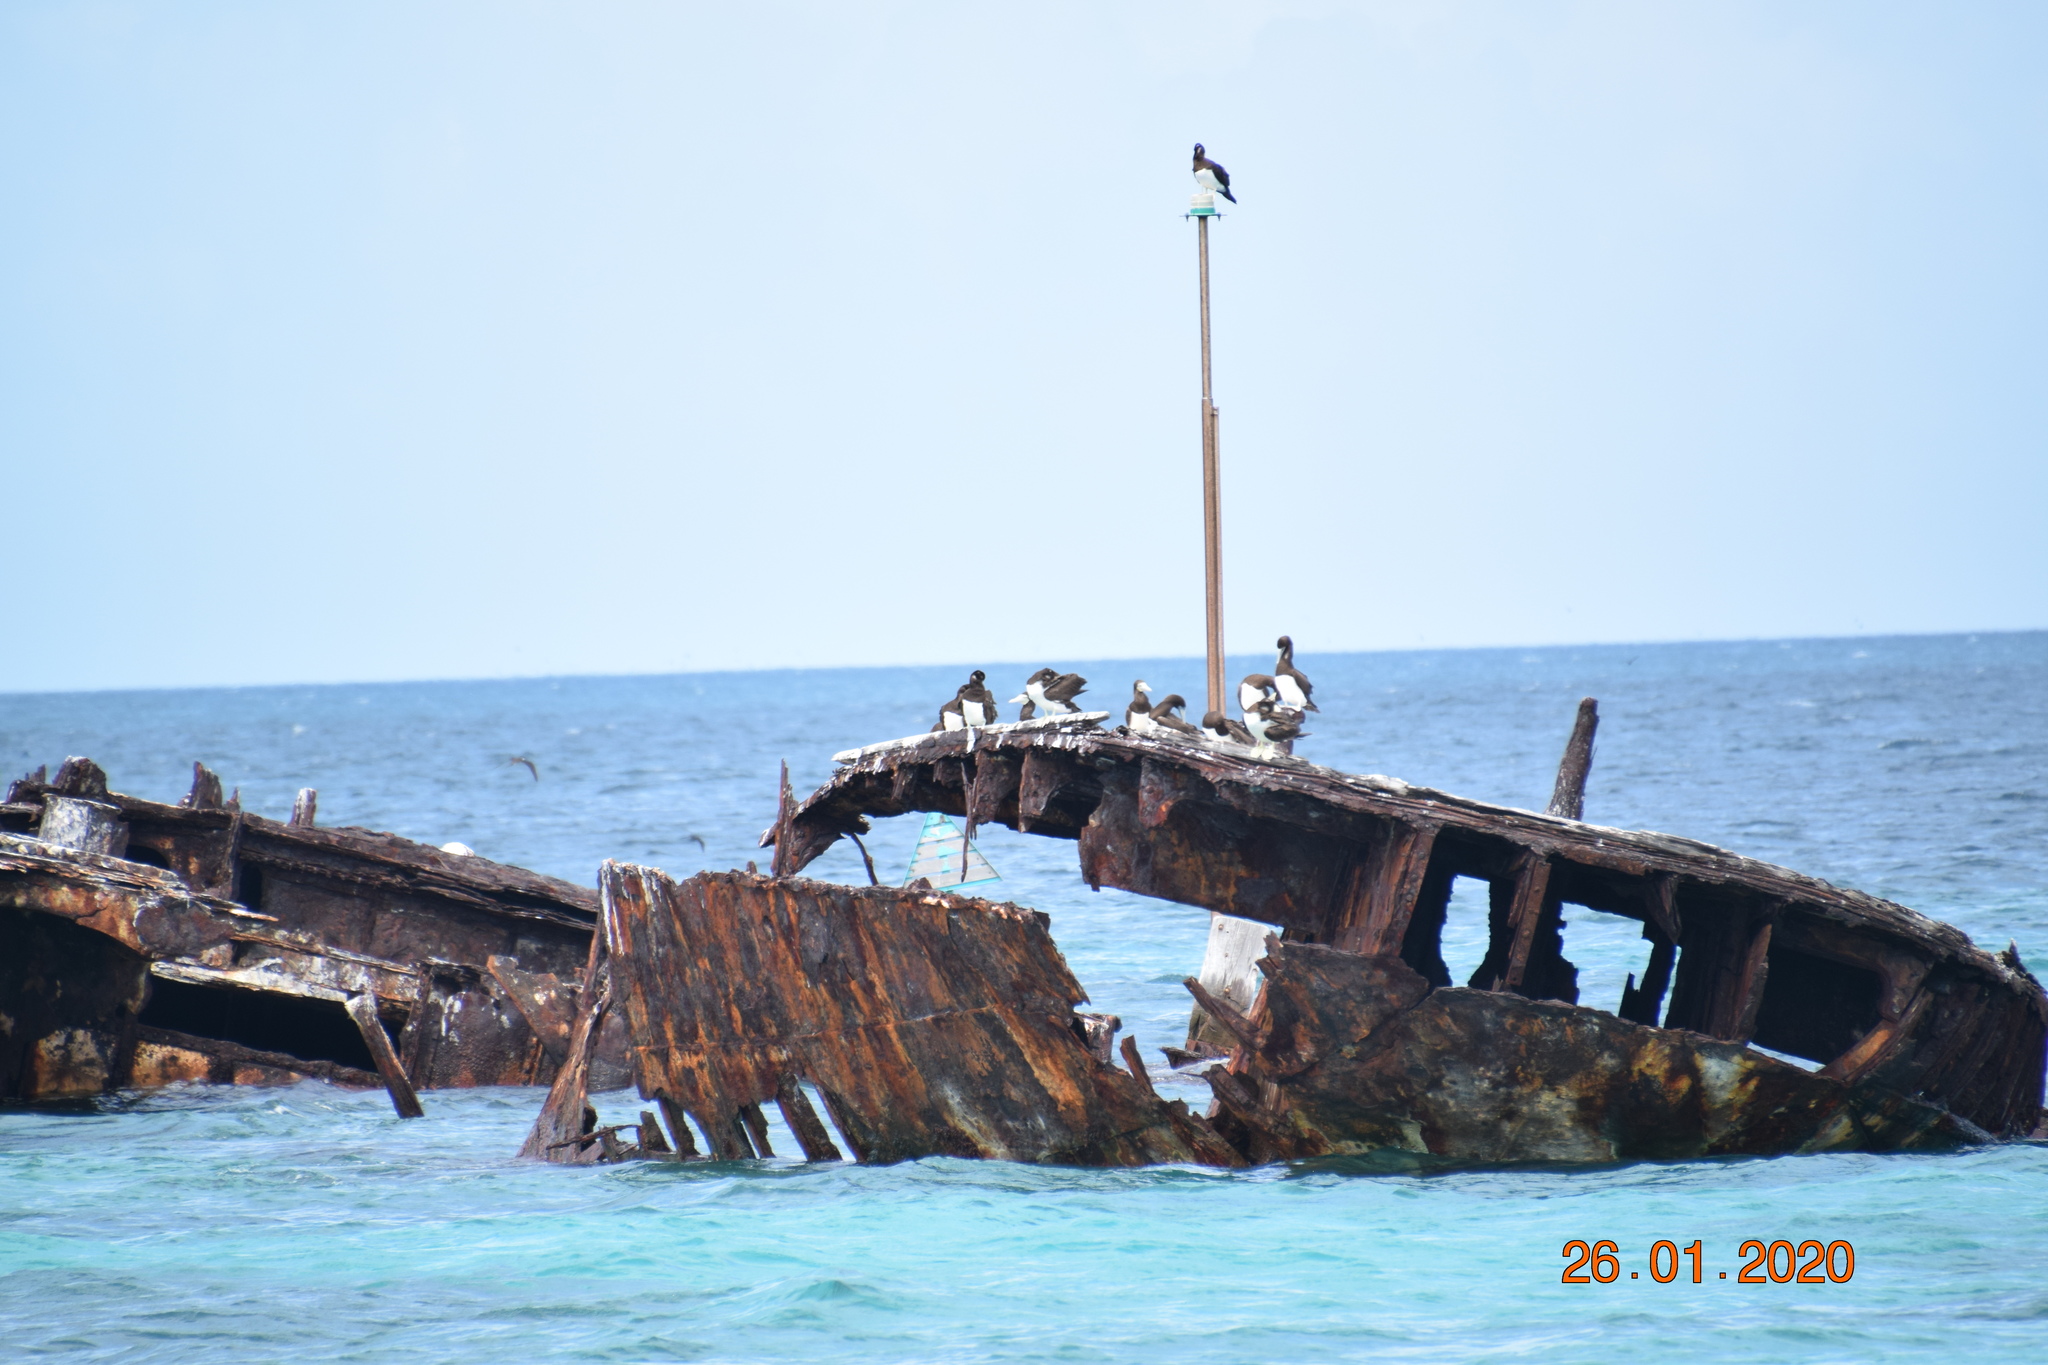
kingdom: Animalia
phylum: Chordata
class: Aves
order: Suliformes
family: Sulidae
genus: Sula
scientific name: Sula leucogaster
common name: Brown booby
